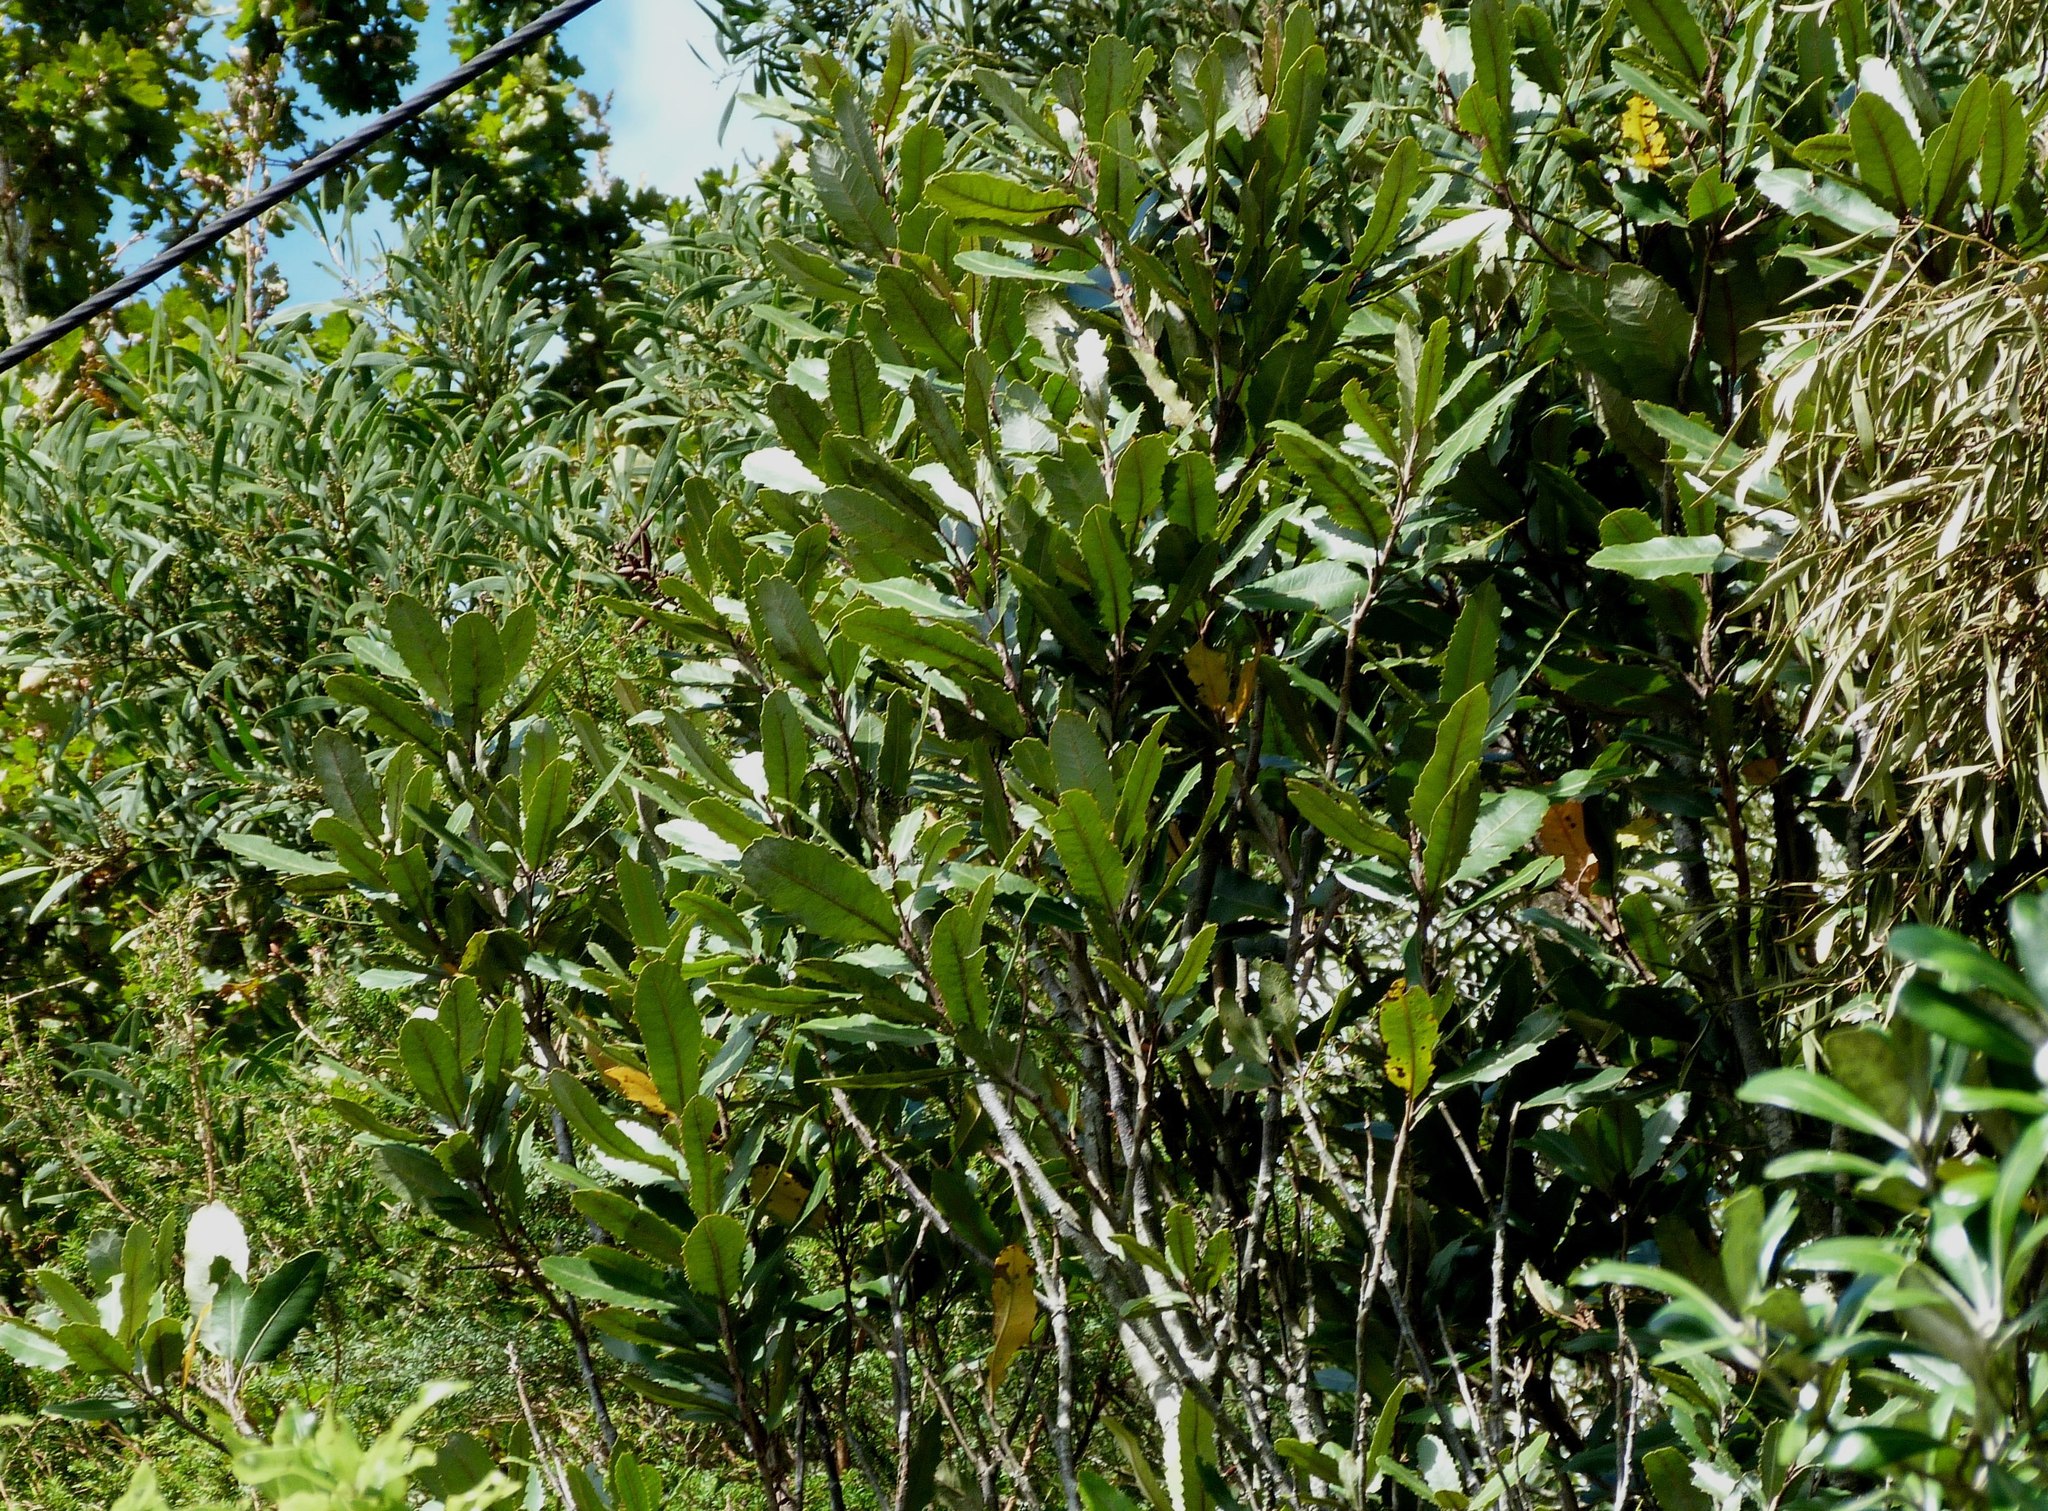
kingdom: Plantae
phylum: Tracheophyta
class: Magnoliopsida
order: Proteales
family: Proteaceae
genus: Knightia
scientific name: Knightia excelsa
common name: New zealand-honeysuckle
